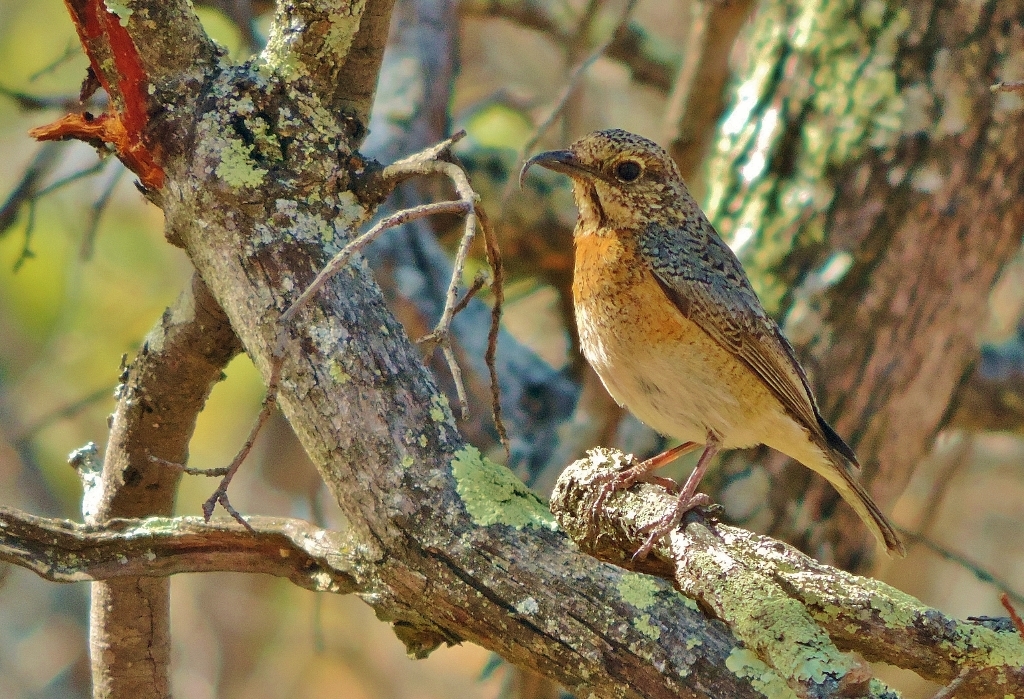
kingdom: Animalia
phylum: Chordata
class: Aves
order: Passeriformes
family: Muscicapidae
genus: Monticola
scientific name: Monticola angolensis
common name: Miombo rock thrush
